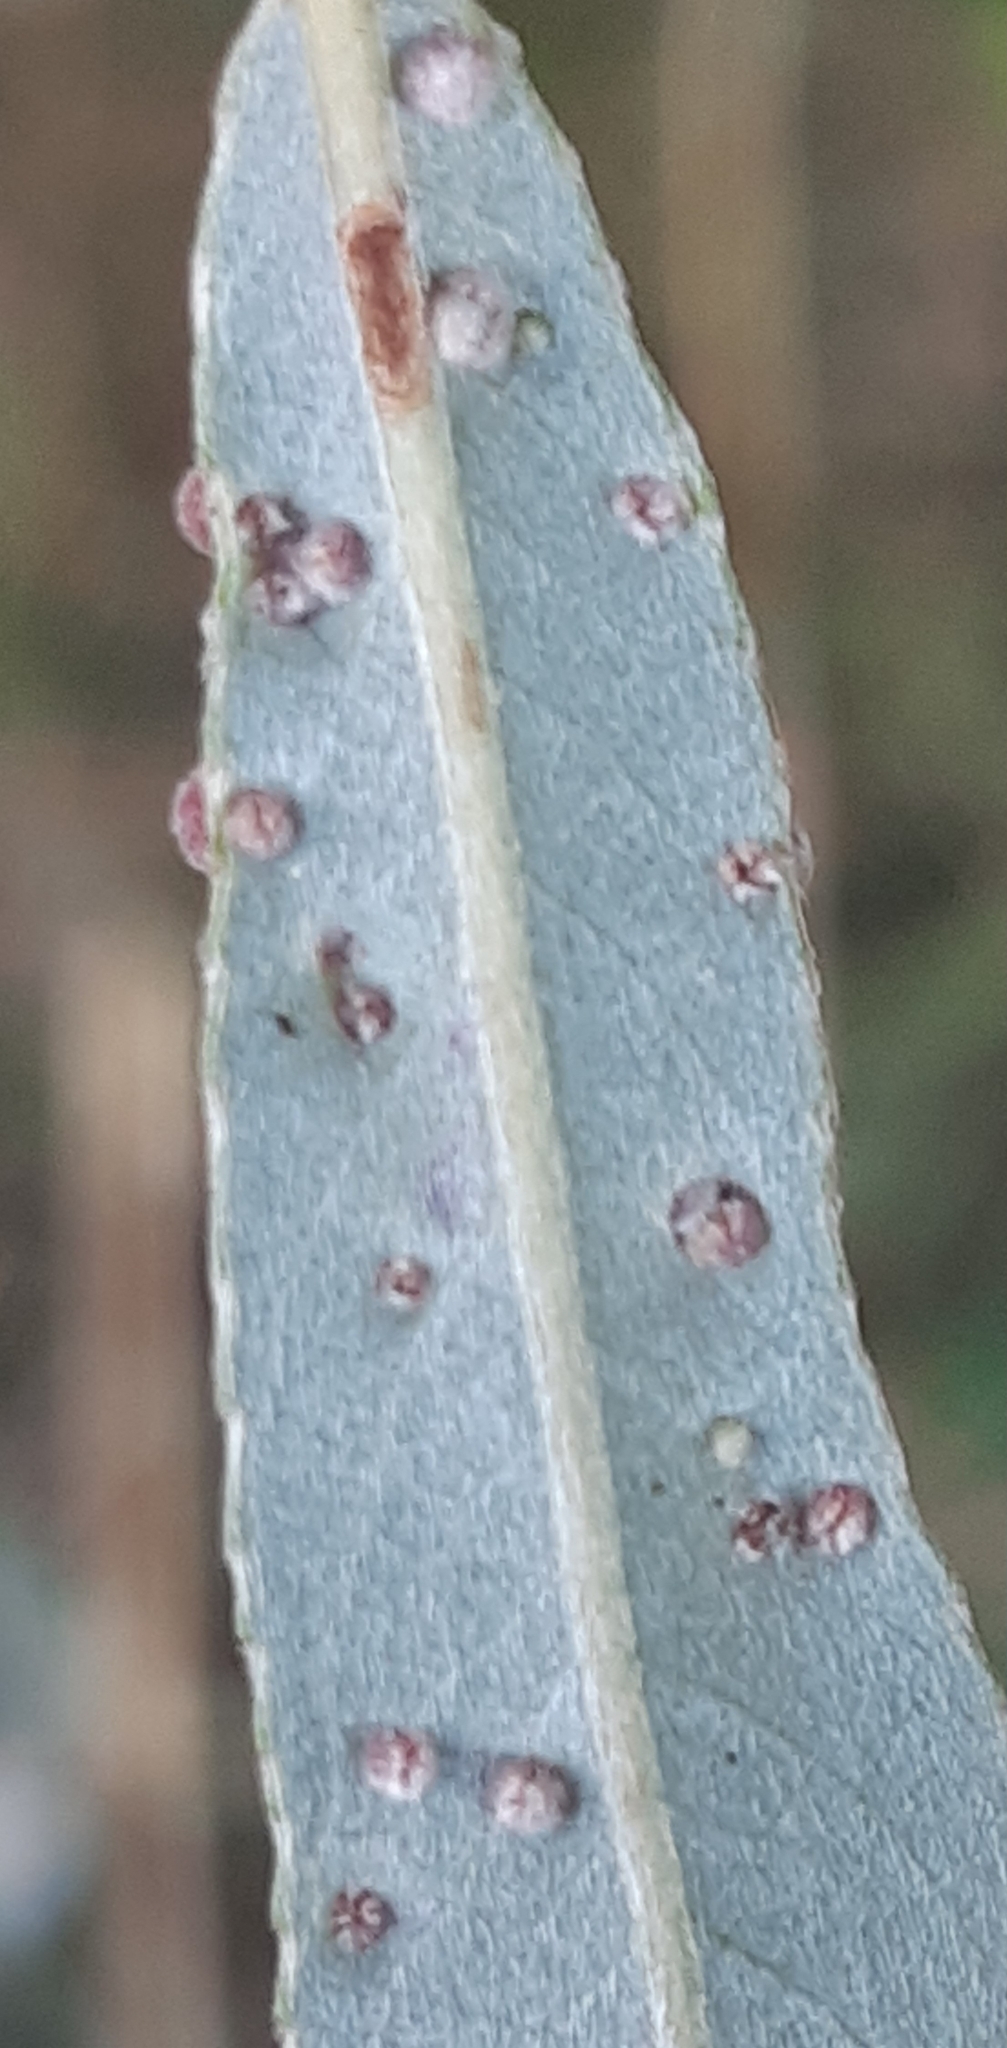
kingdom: Animalia
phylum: Arthropoda
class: Arachnida
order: Trombidiformes
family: Eriophyidae
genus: Aculus
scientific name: Aculus tetanothrix
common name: Willow bead gall mite
